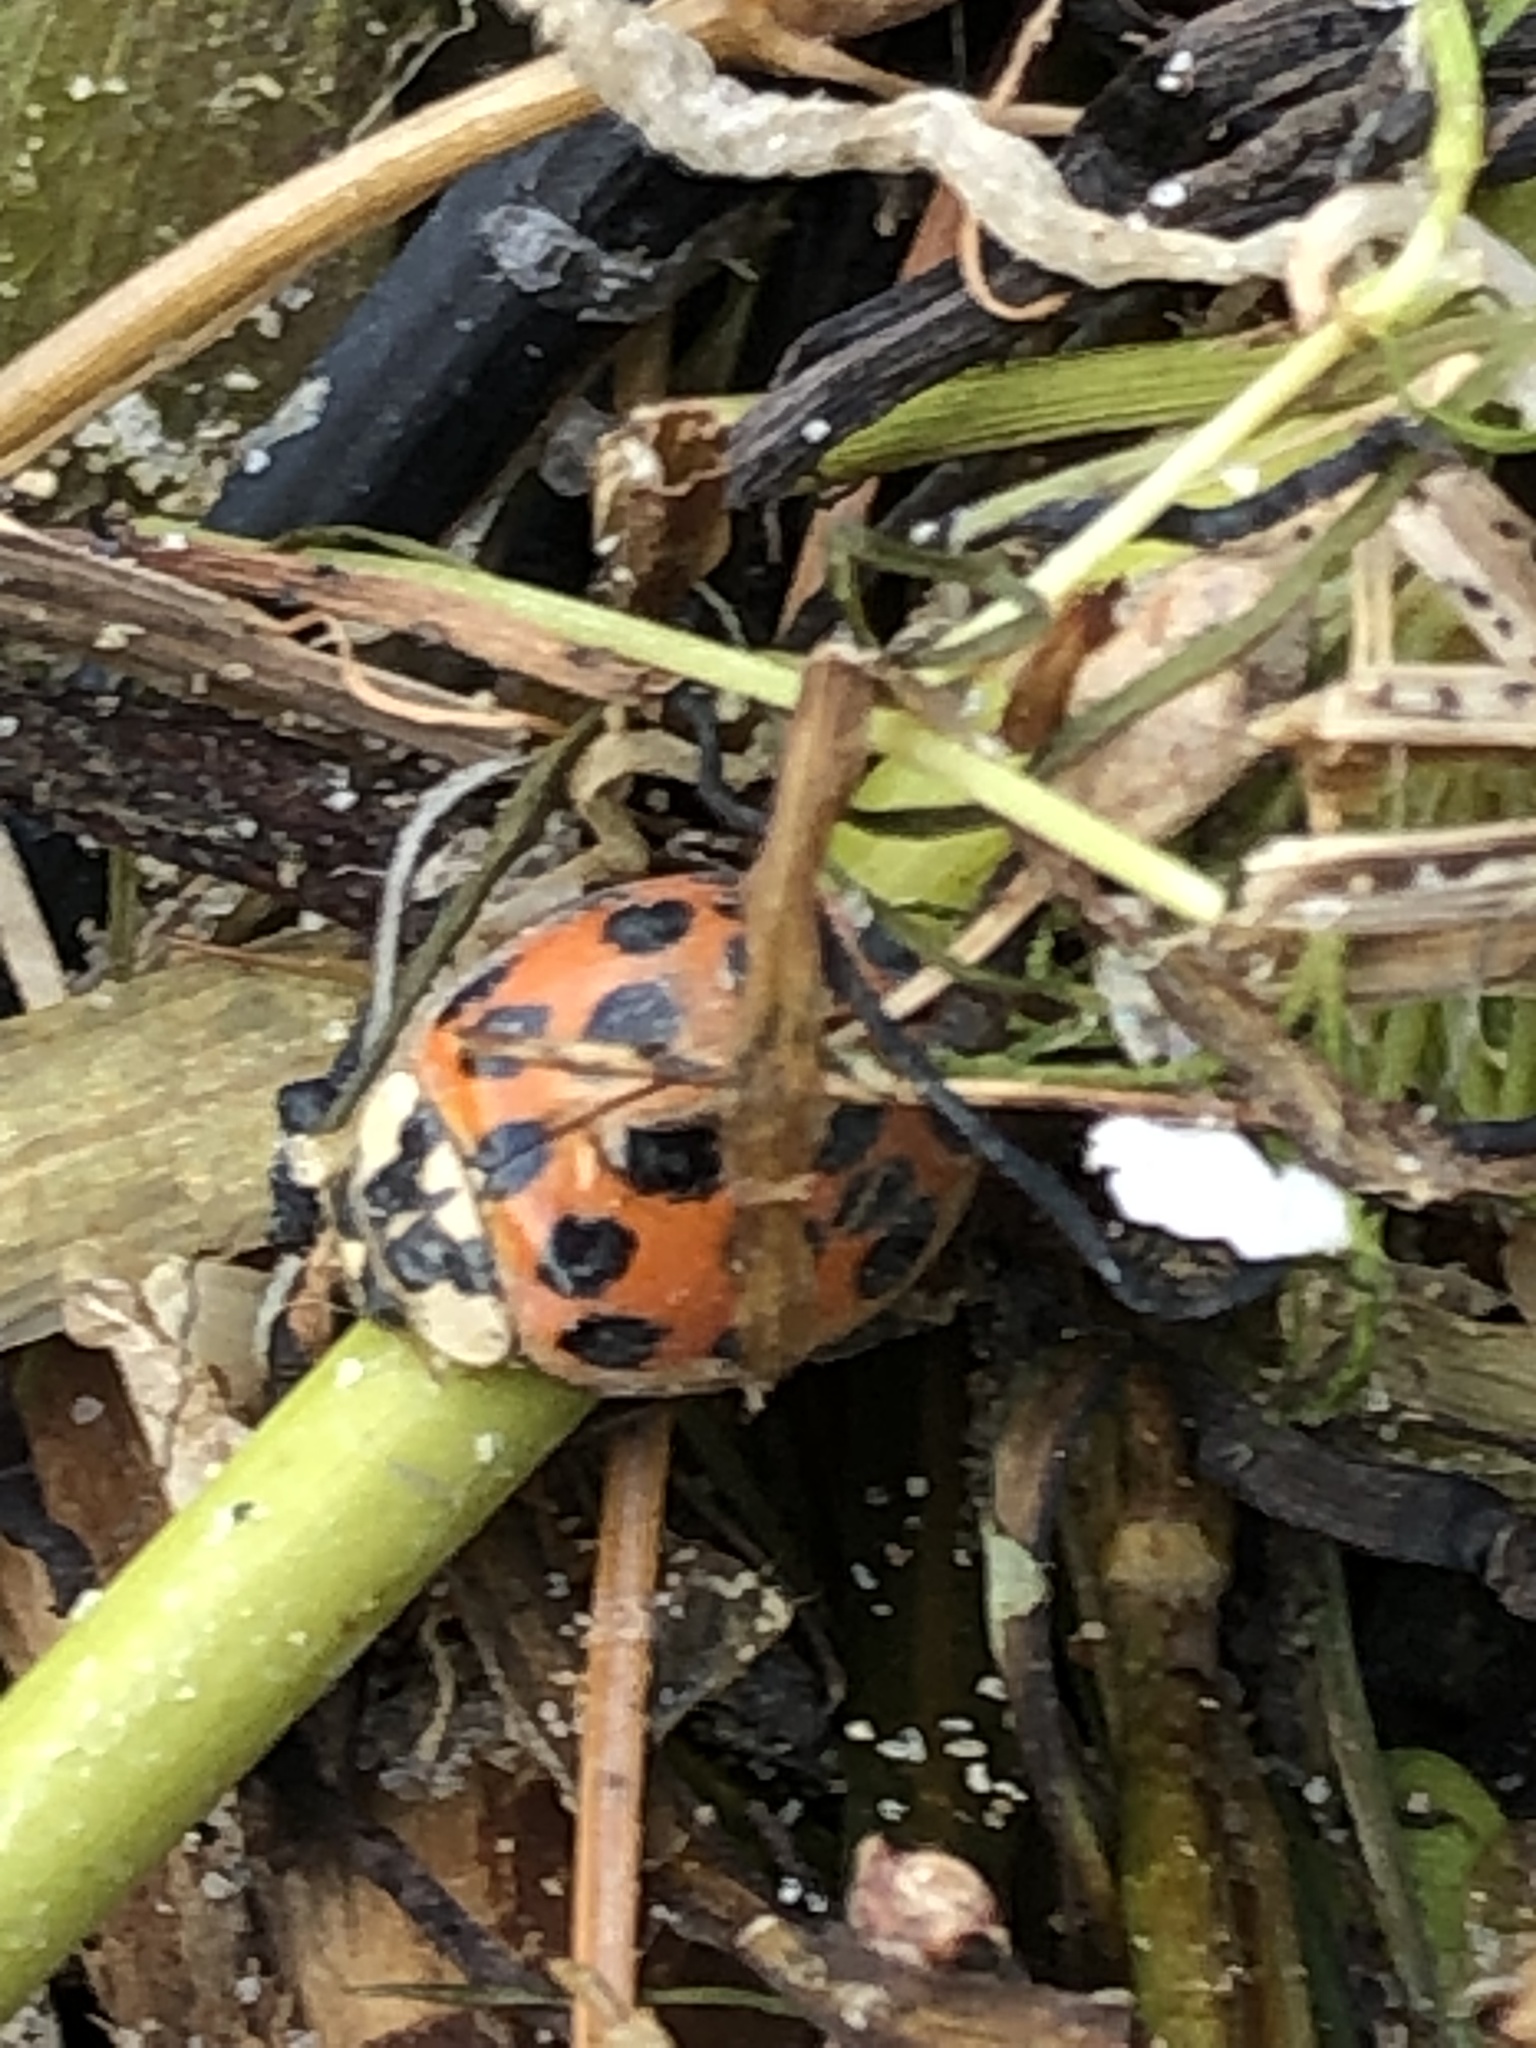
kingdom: Animalia
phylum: Arthropoda
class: Insecta
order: Coleoptera
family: Coccinellidae
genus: Harmonia
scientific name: Harmonia axyridis
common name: Harlequin ladybird
